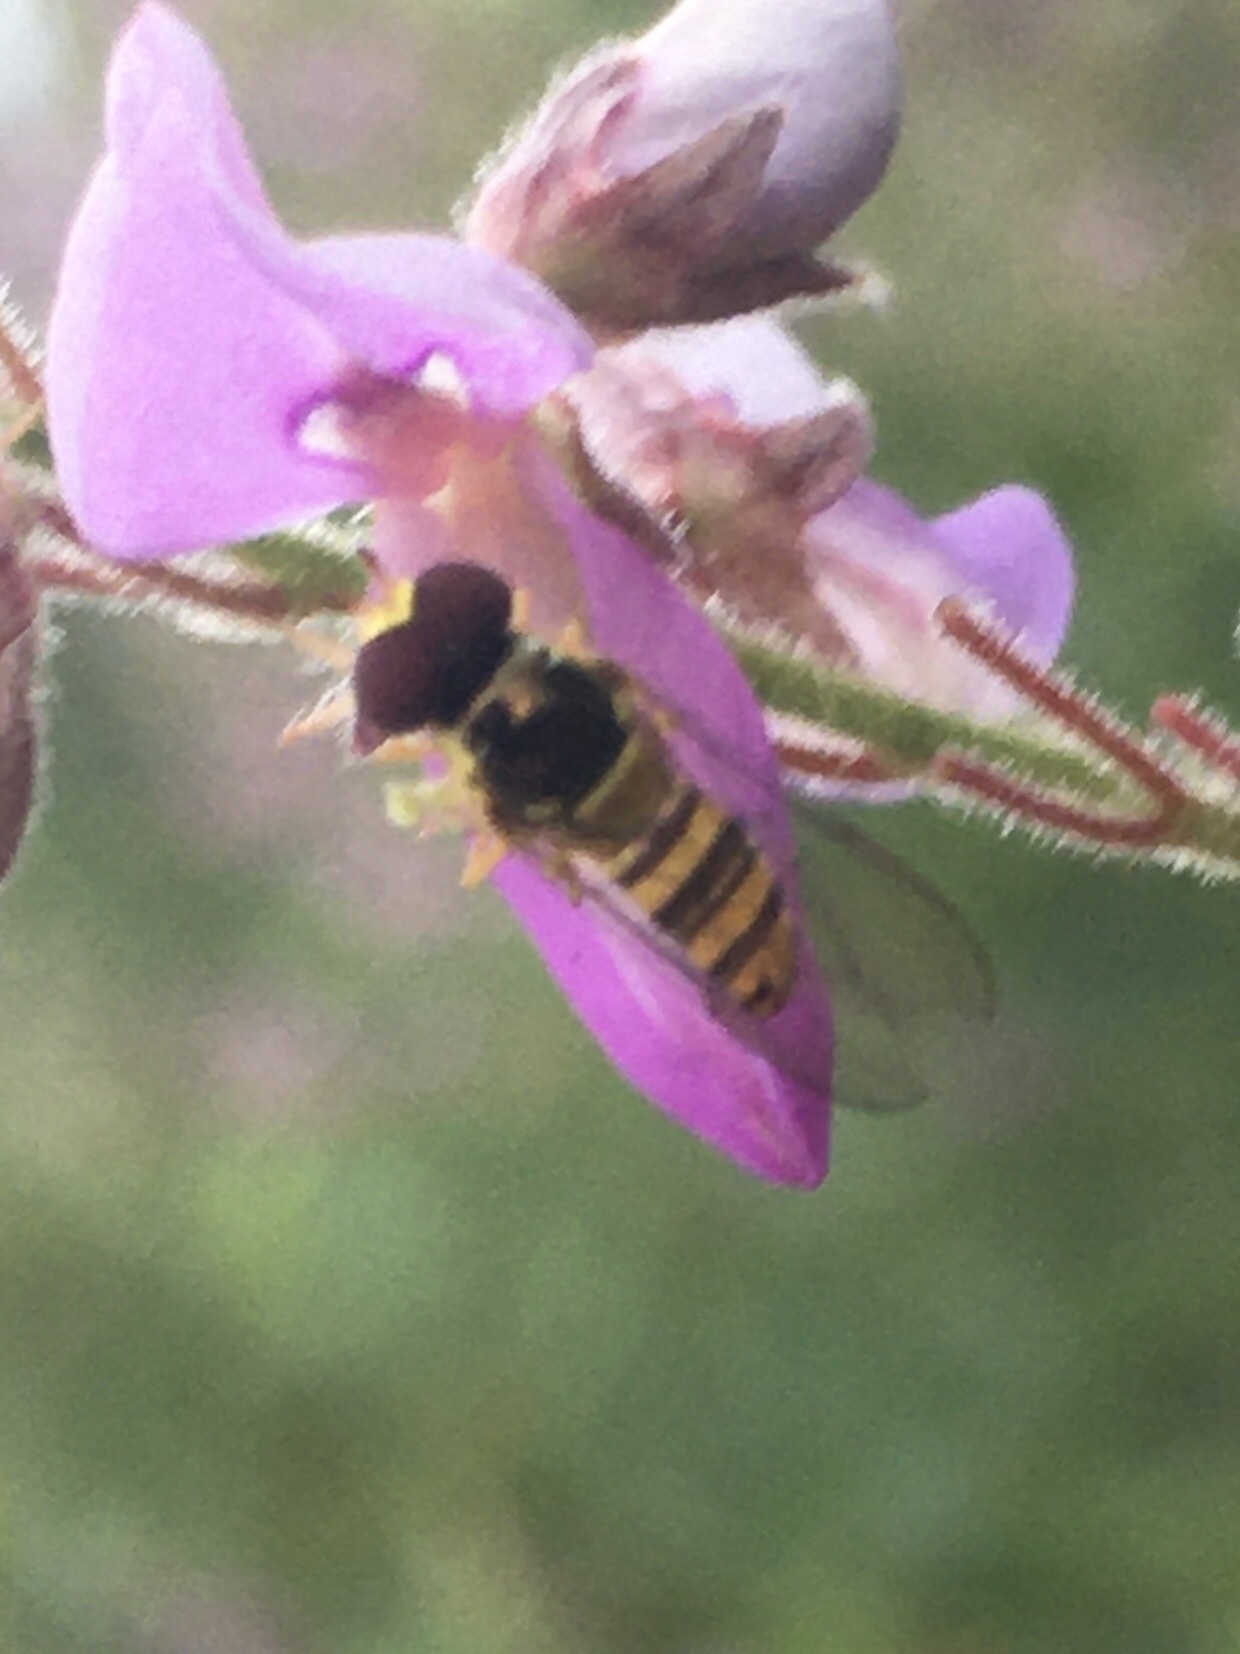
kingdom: Animalia
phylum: Arthropoda
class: Insecta
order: Diptera
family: Syrphidae
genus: Allograpta
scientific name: Allograpta obliqua
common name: Common oblique syrphid
